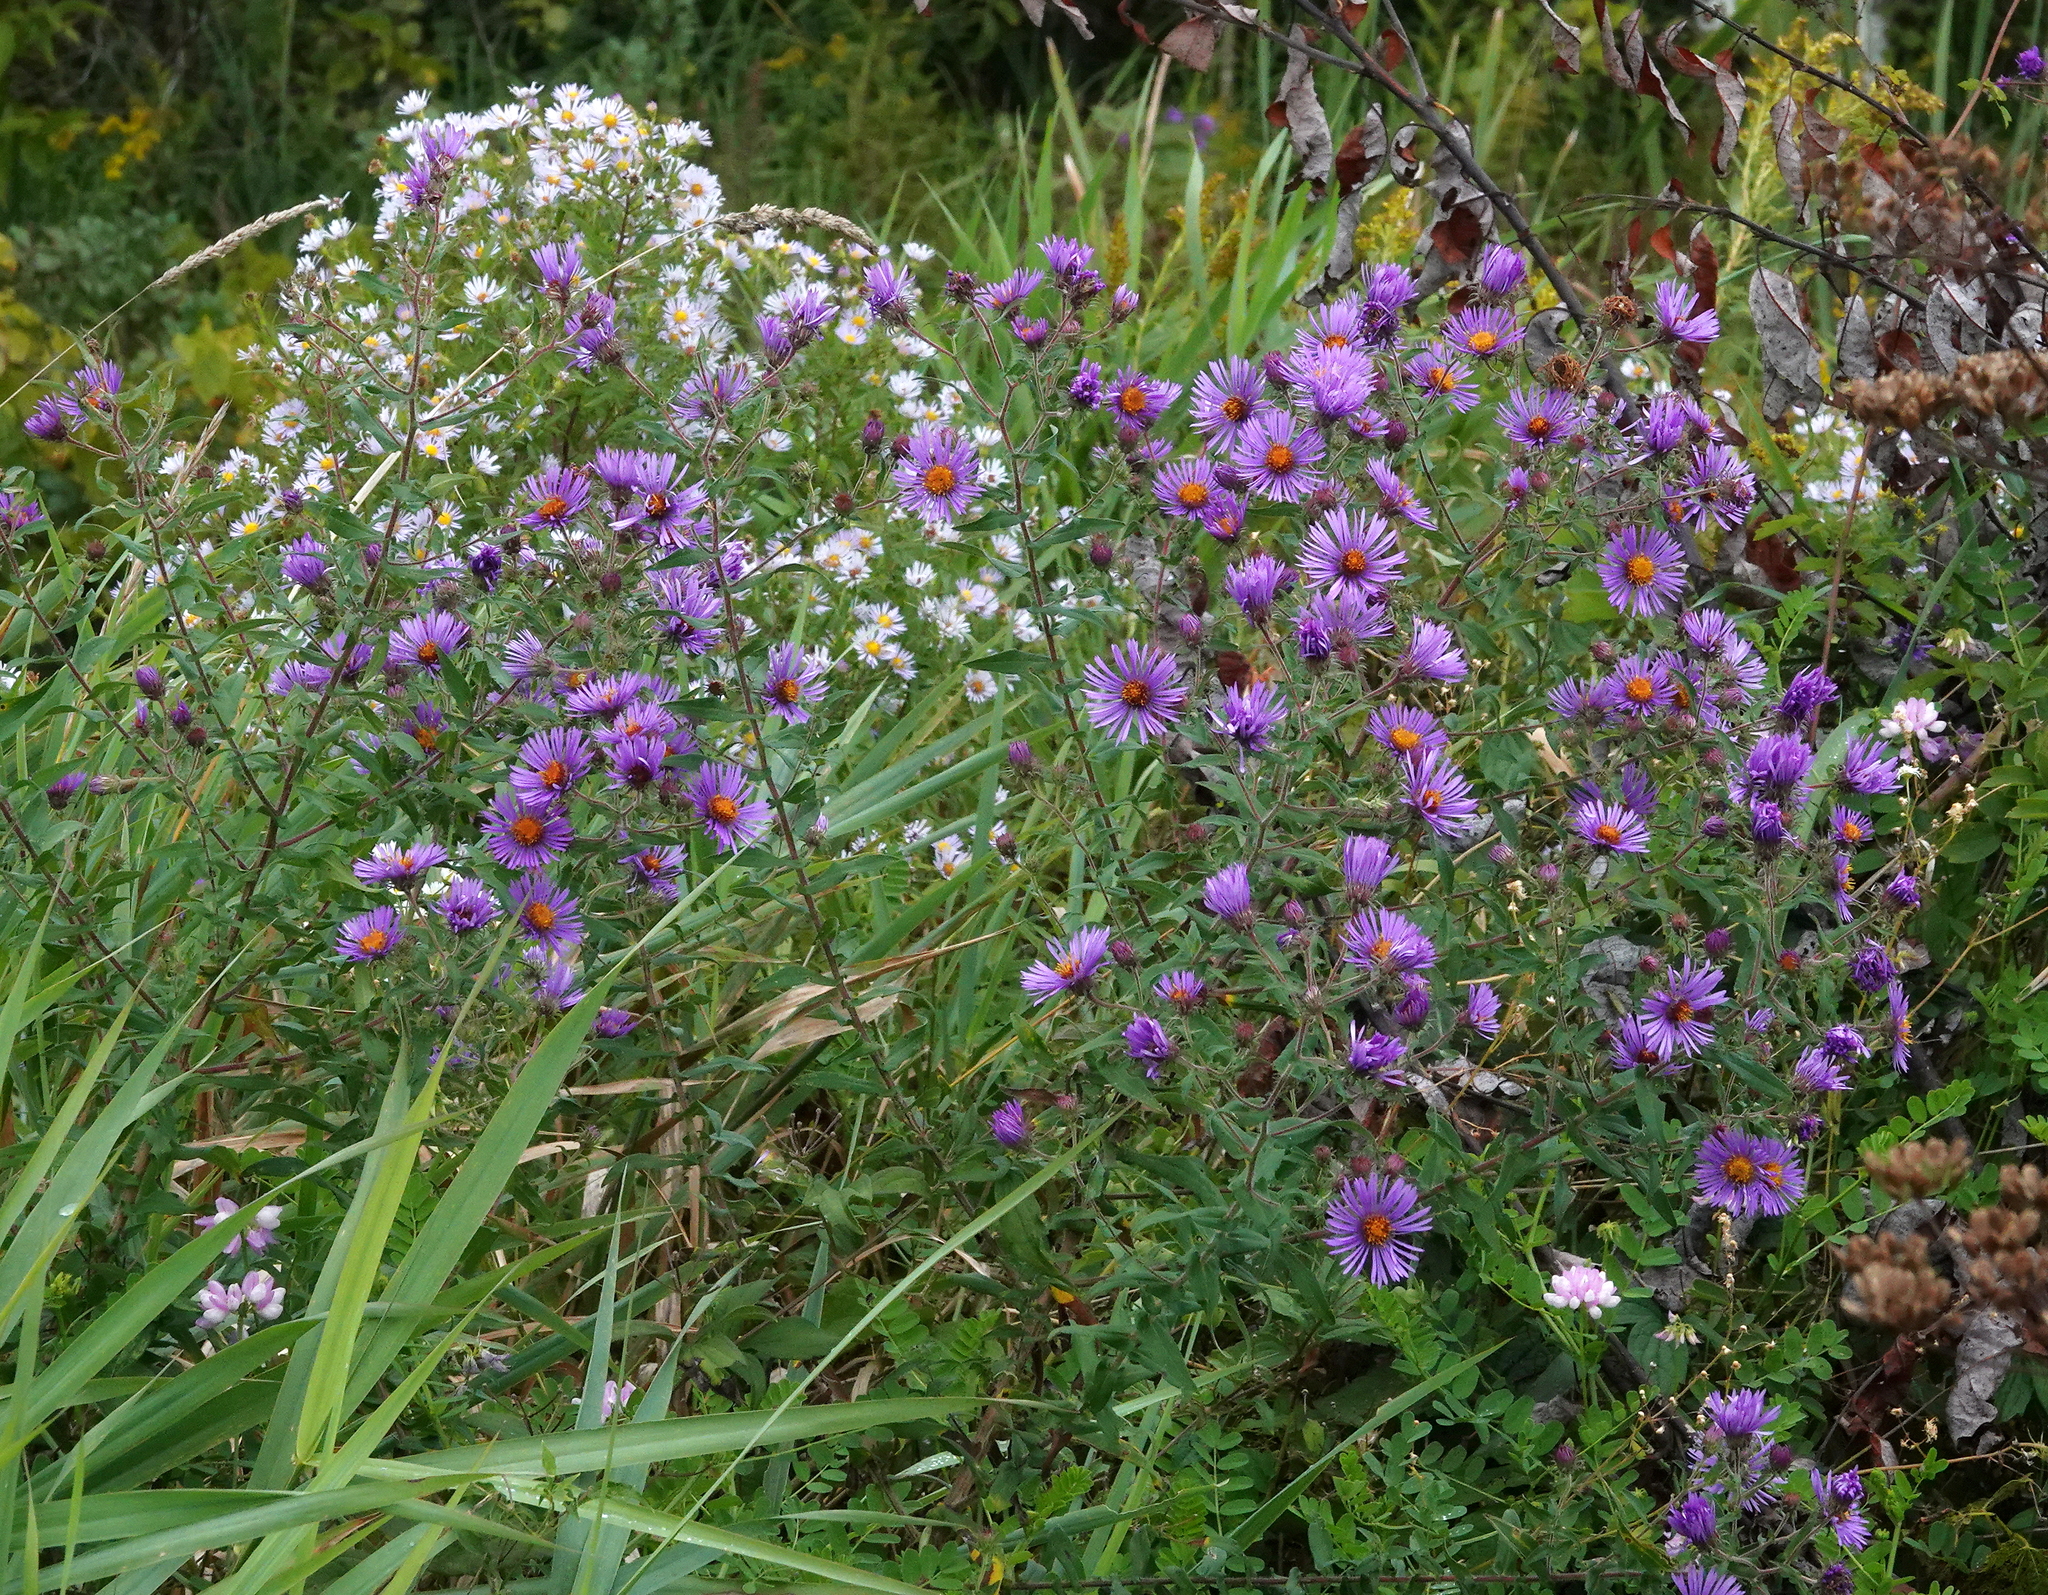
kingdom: Plantae
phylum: Tracheophyta
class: Magnoliopsida
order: Asterales
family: Asteraceae
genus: Symphyotrichum
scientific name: Symphyotrichum novae-angliae
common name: Michaelmas daisy
